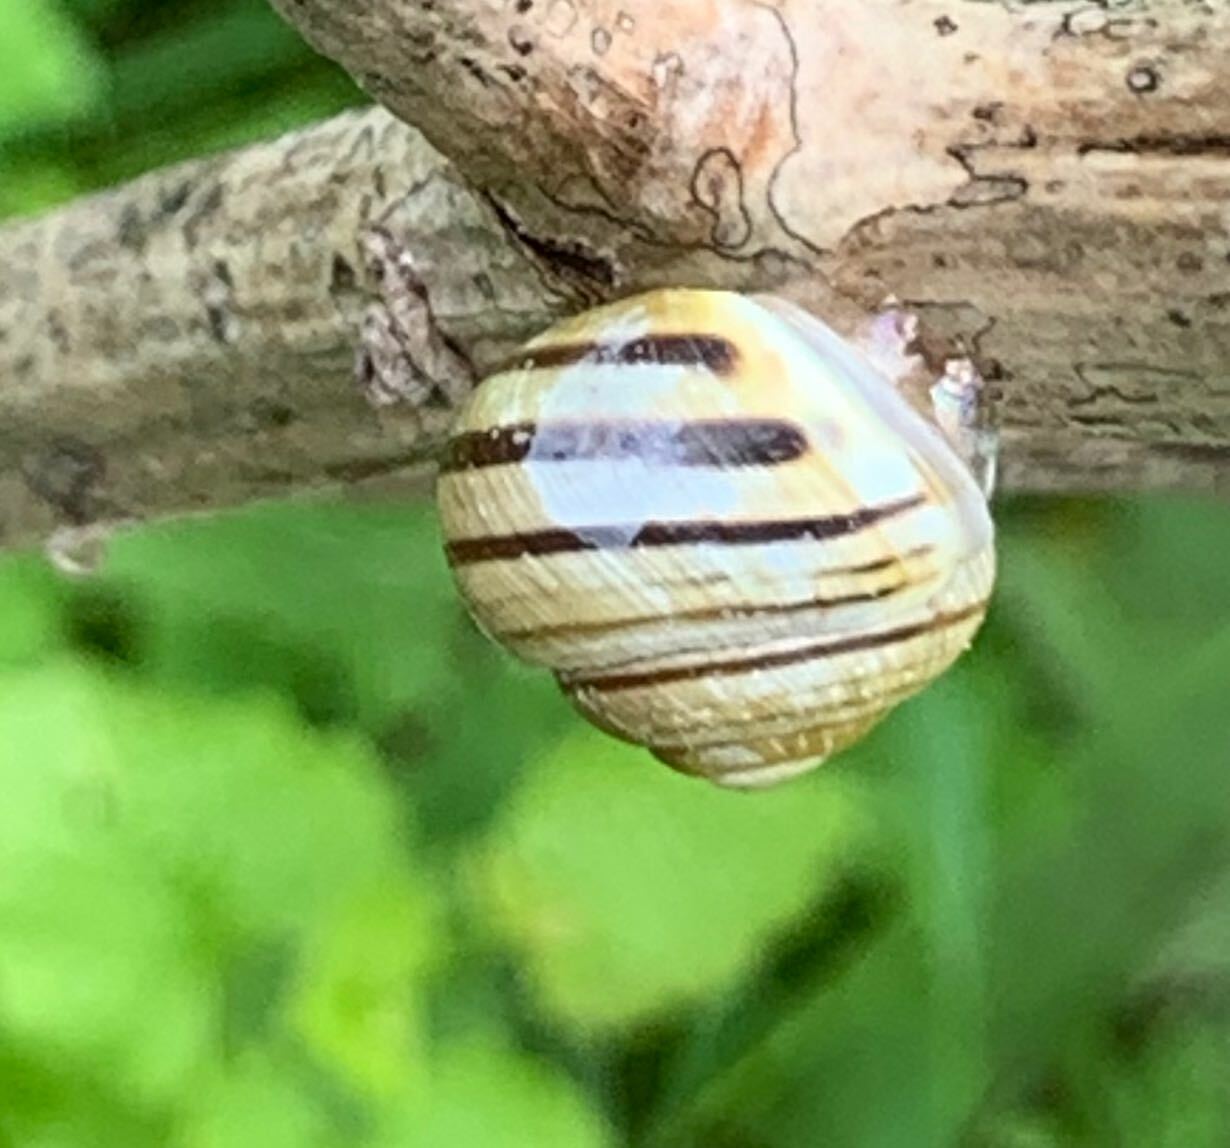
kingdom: Animalia
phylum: Mollusca
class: Gastropoda
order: Stylommatophora
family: Helicidae
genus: Cepaea
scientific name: Cepaea hortensis
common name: White-lip gardensnail
